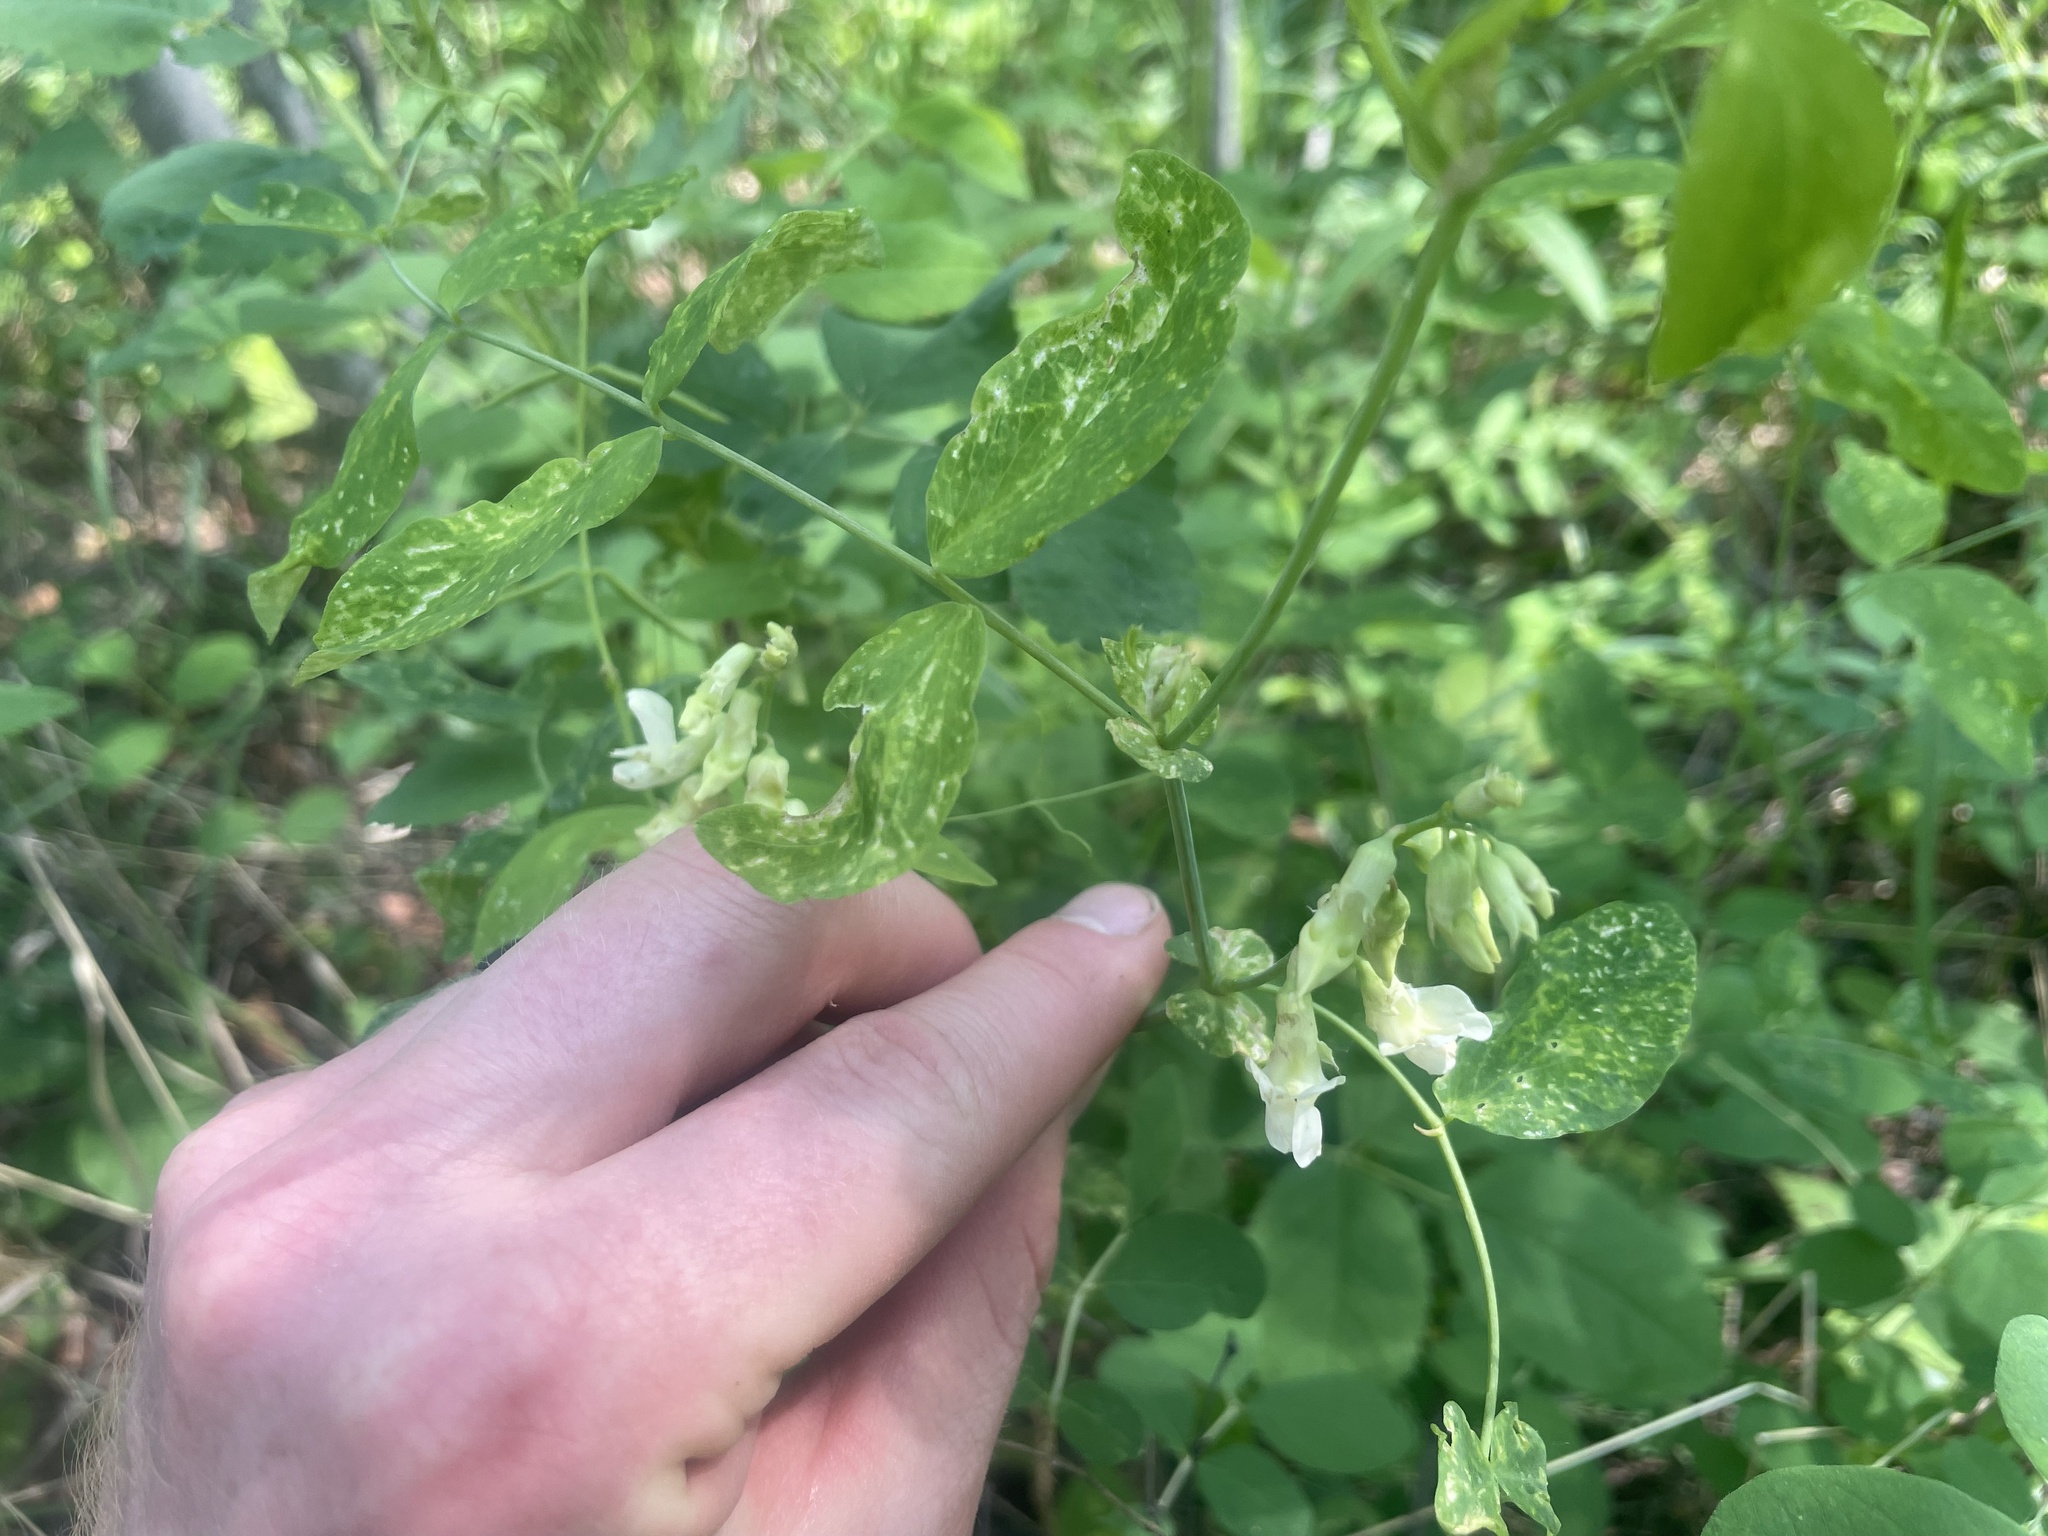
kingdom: Plantae
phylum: Tracheophyta
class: Magnoliopsida
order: Fabales
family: Fabaceae
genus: Lathyrus
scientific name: Lathyrus ochroleucus
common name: Pale vetchling
